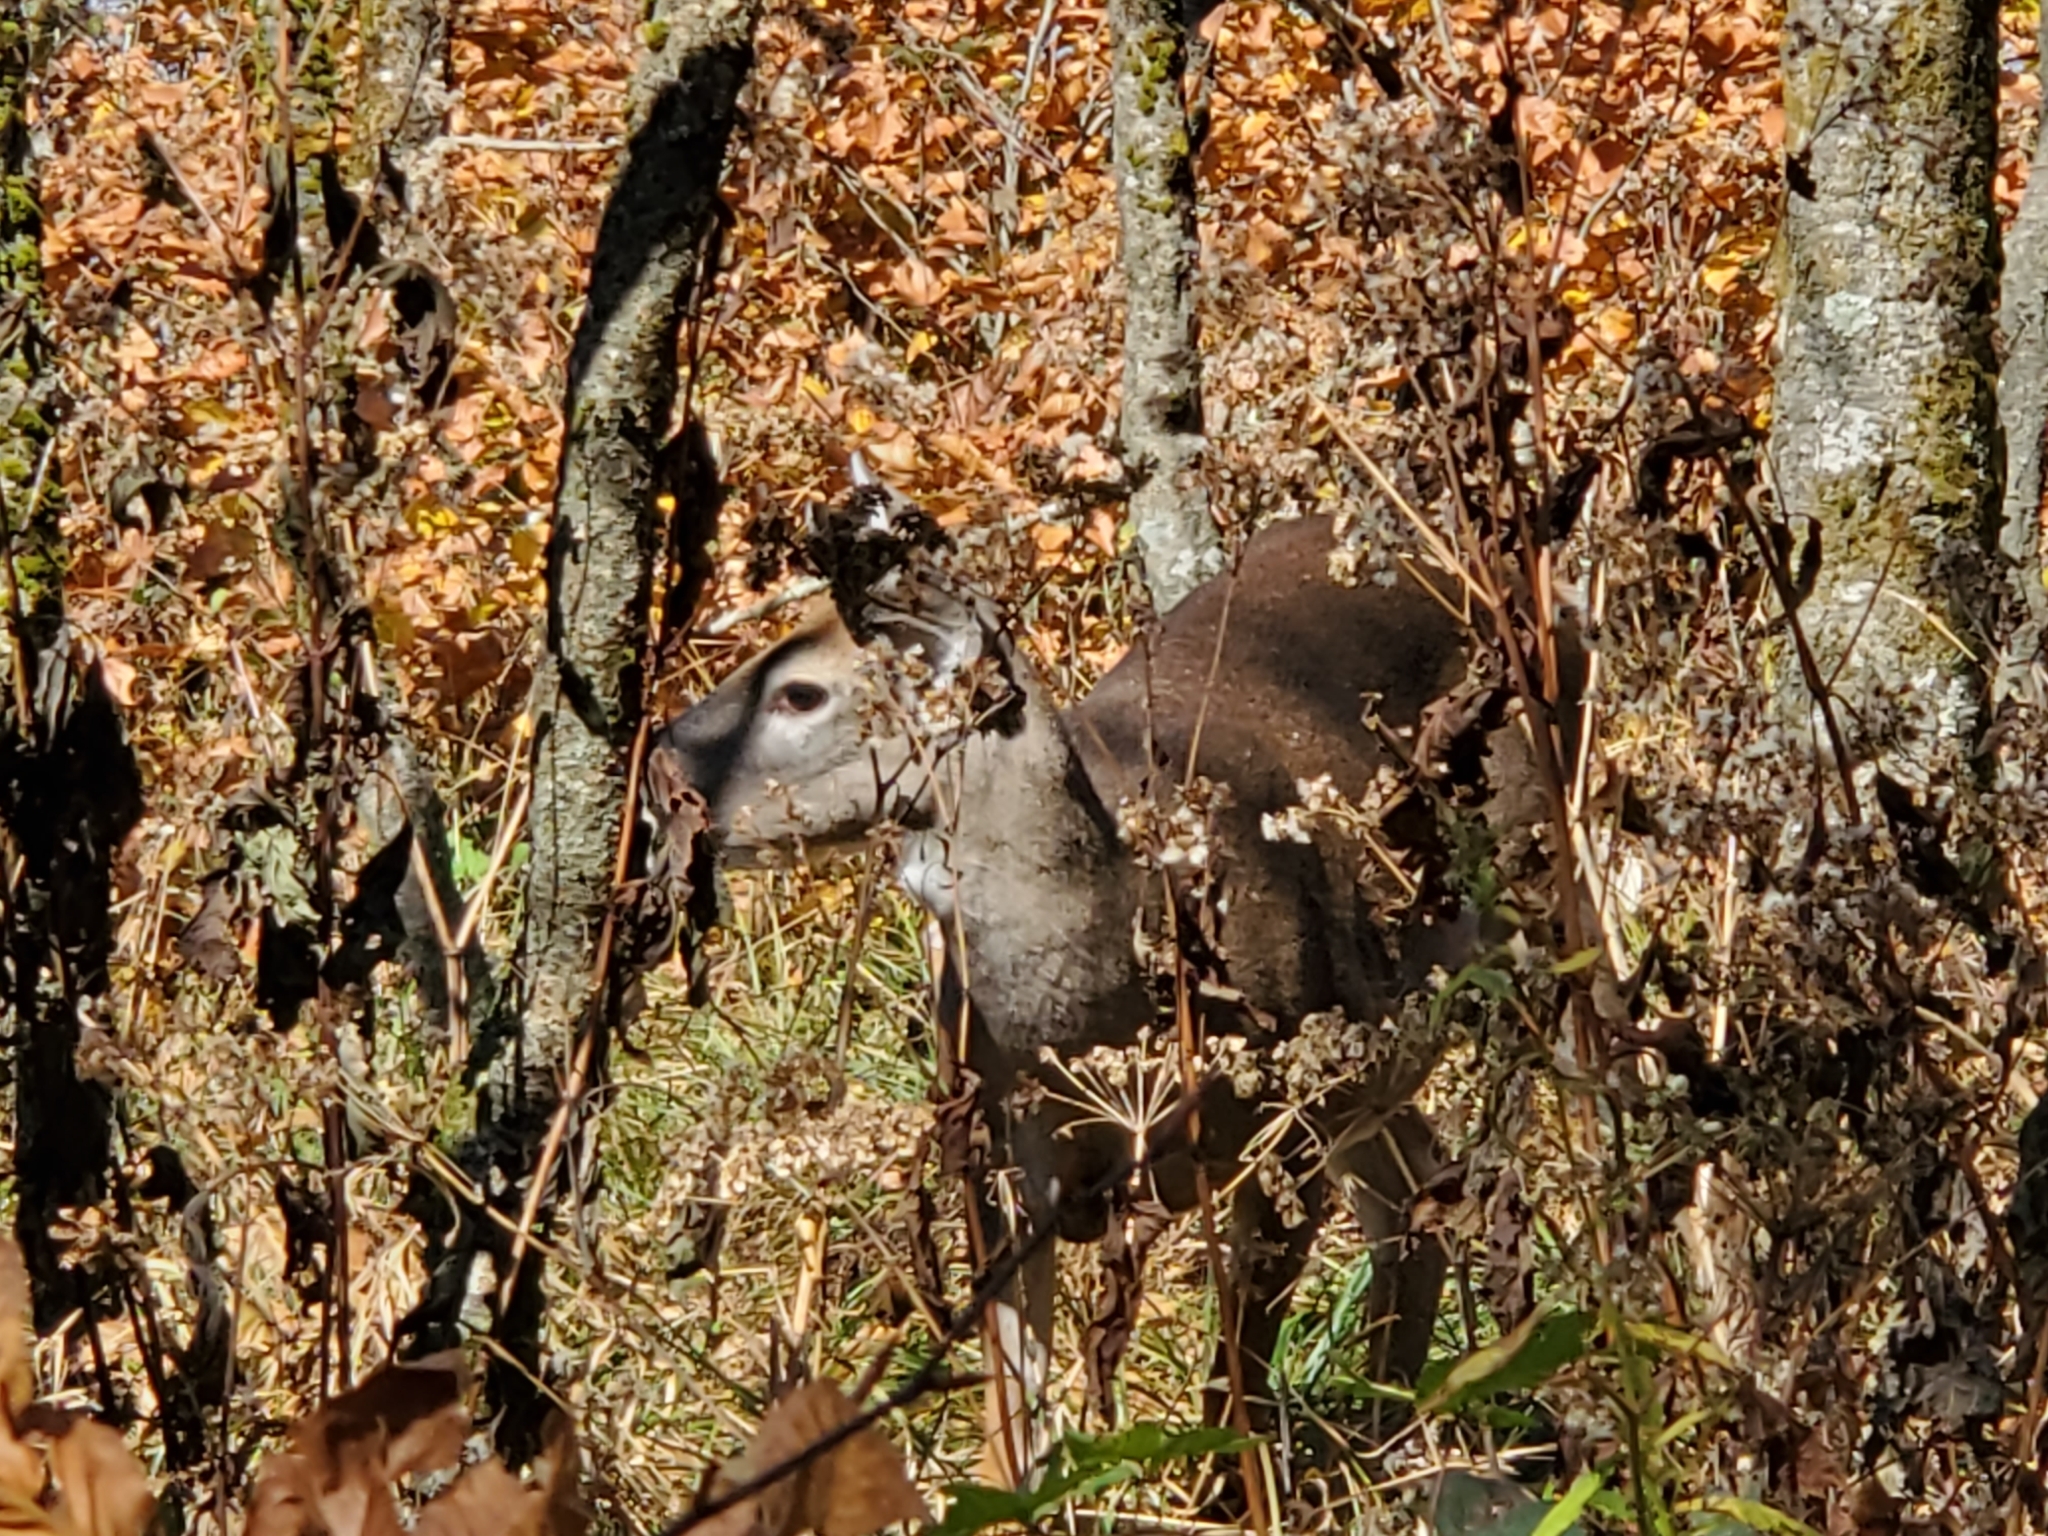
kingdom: Animalia
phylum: Chordata
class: Mammalia
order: Artiodactyla
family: Cervidae
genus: Odocoileus
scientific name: Odocoileus virginianus
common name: White-tailed deer
